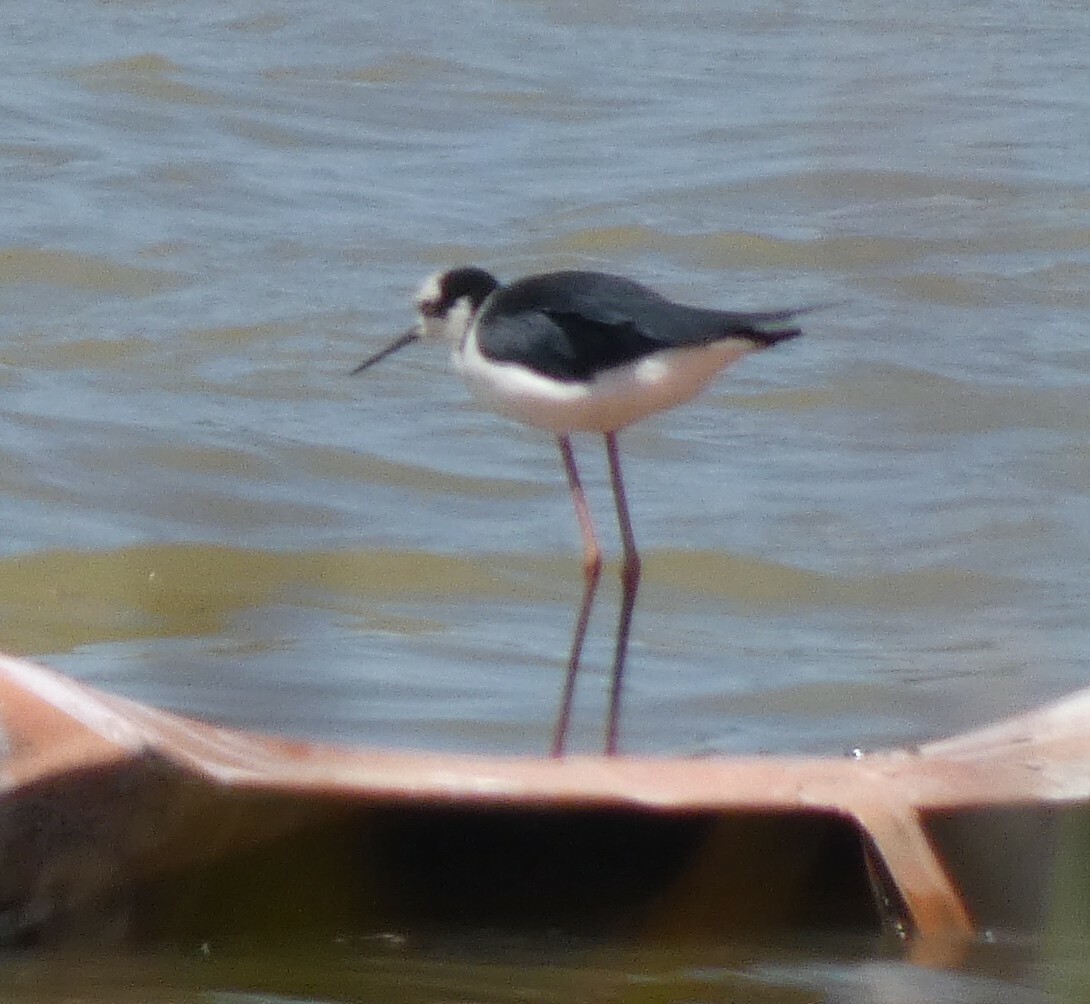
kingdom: Animalia
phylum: Chordata
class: Aves
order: Charadriiformes
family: Recurvirostridae
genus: Himantopus
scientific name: Himantopus mexicanus
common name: Black-necked stilt
